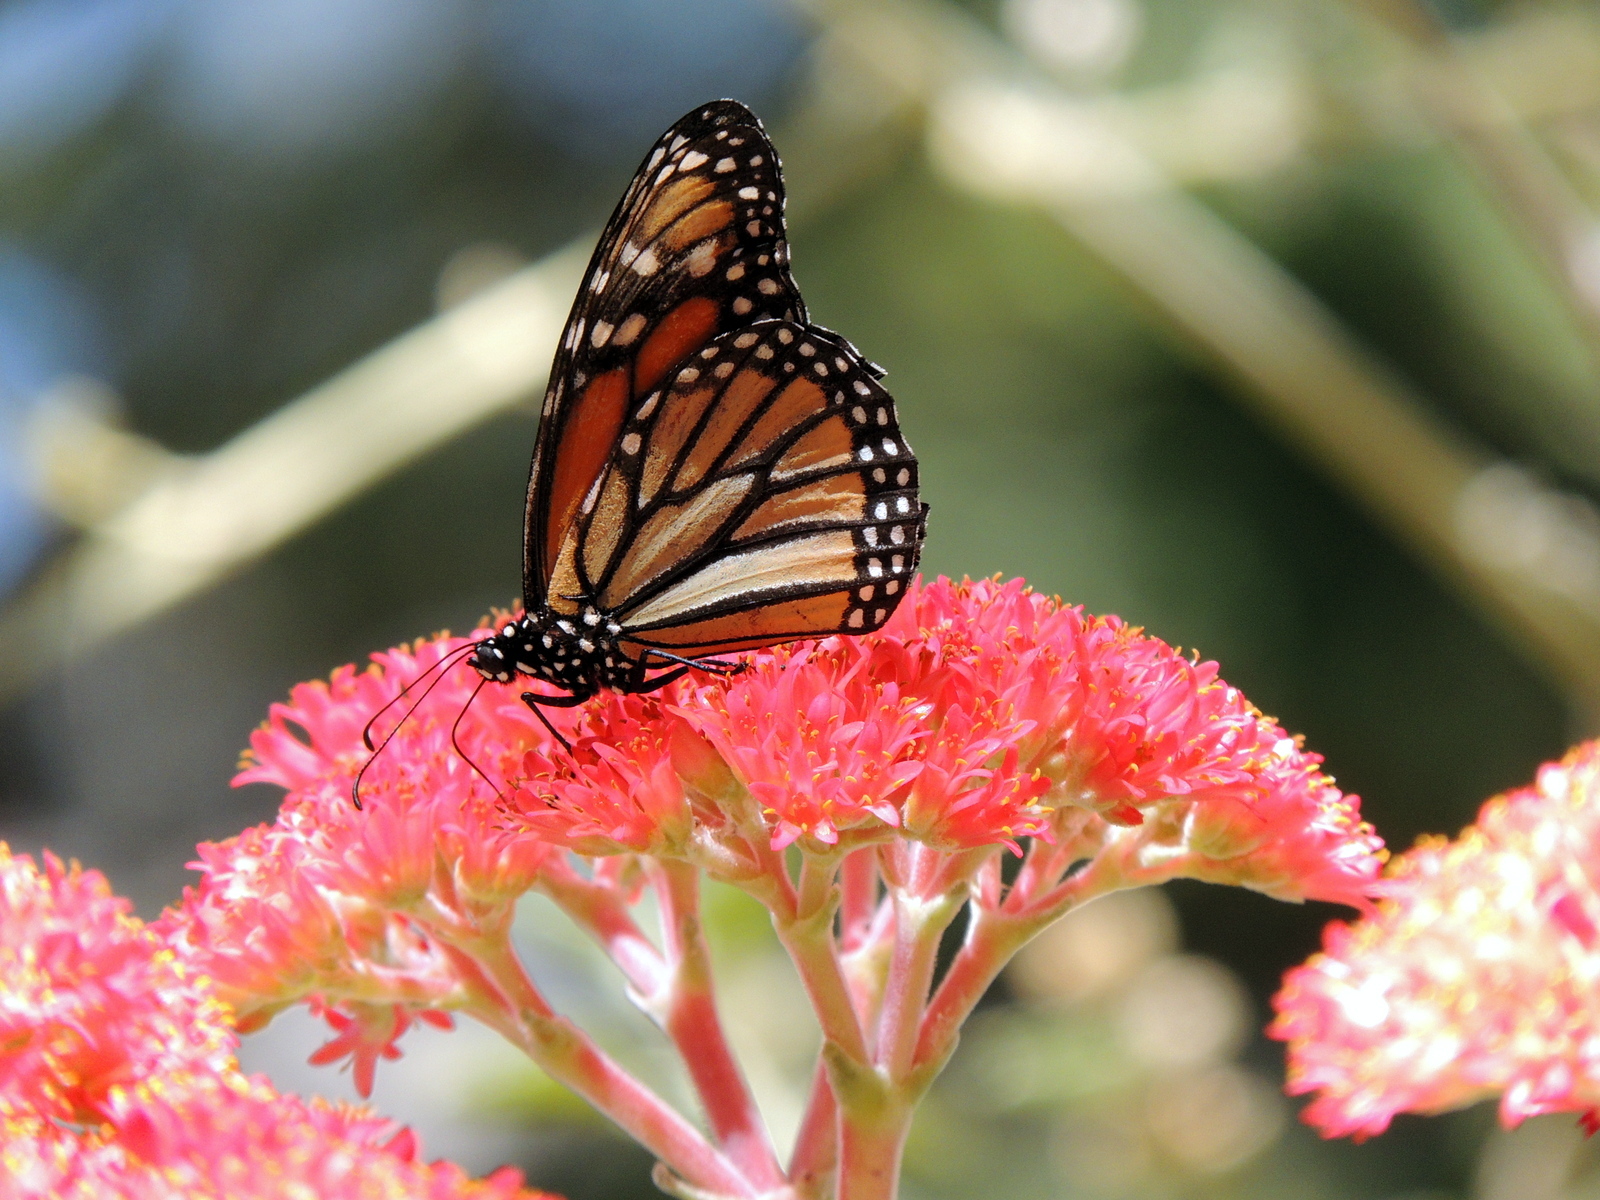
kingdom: Animalia
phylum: Arthropoda
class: Insecta
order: Lepidoptera
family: Nymphalidae
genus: Danaus
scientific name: Danaus plexippus
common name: Monarch
